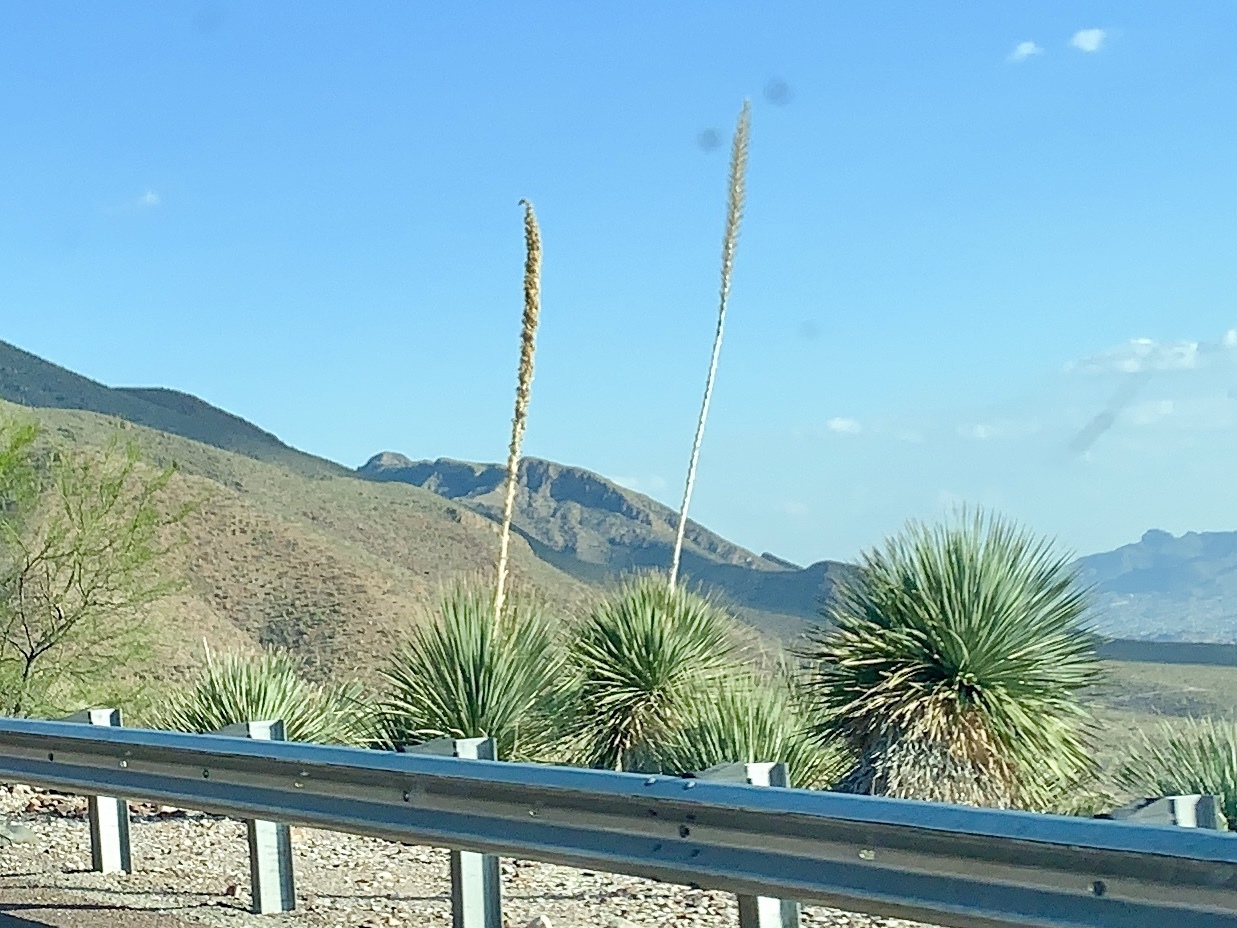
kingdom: Plantae
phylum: Tracheophyta
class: Liliopsida
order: Asparagales
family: Asparagaceae
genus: Dasylirion
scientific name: Dasylirion wheeleri
